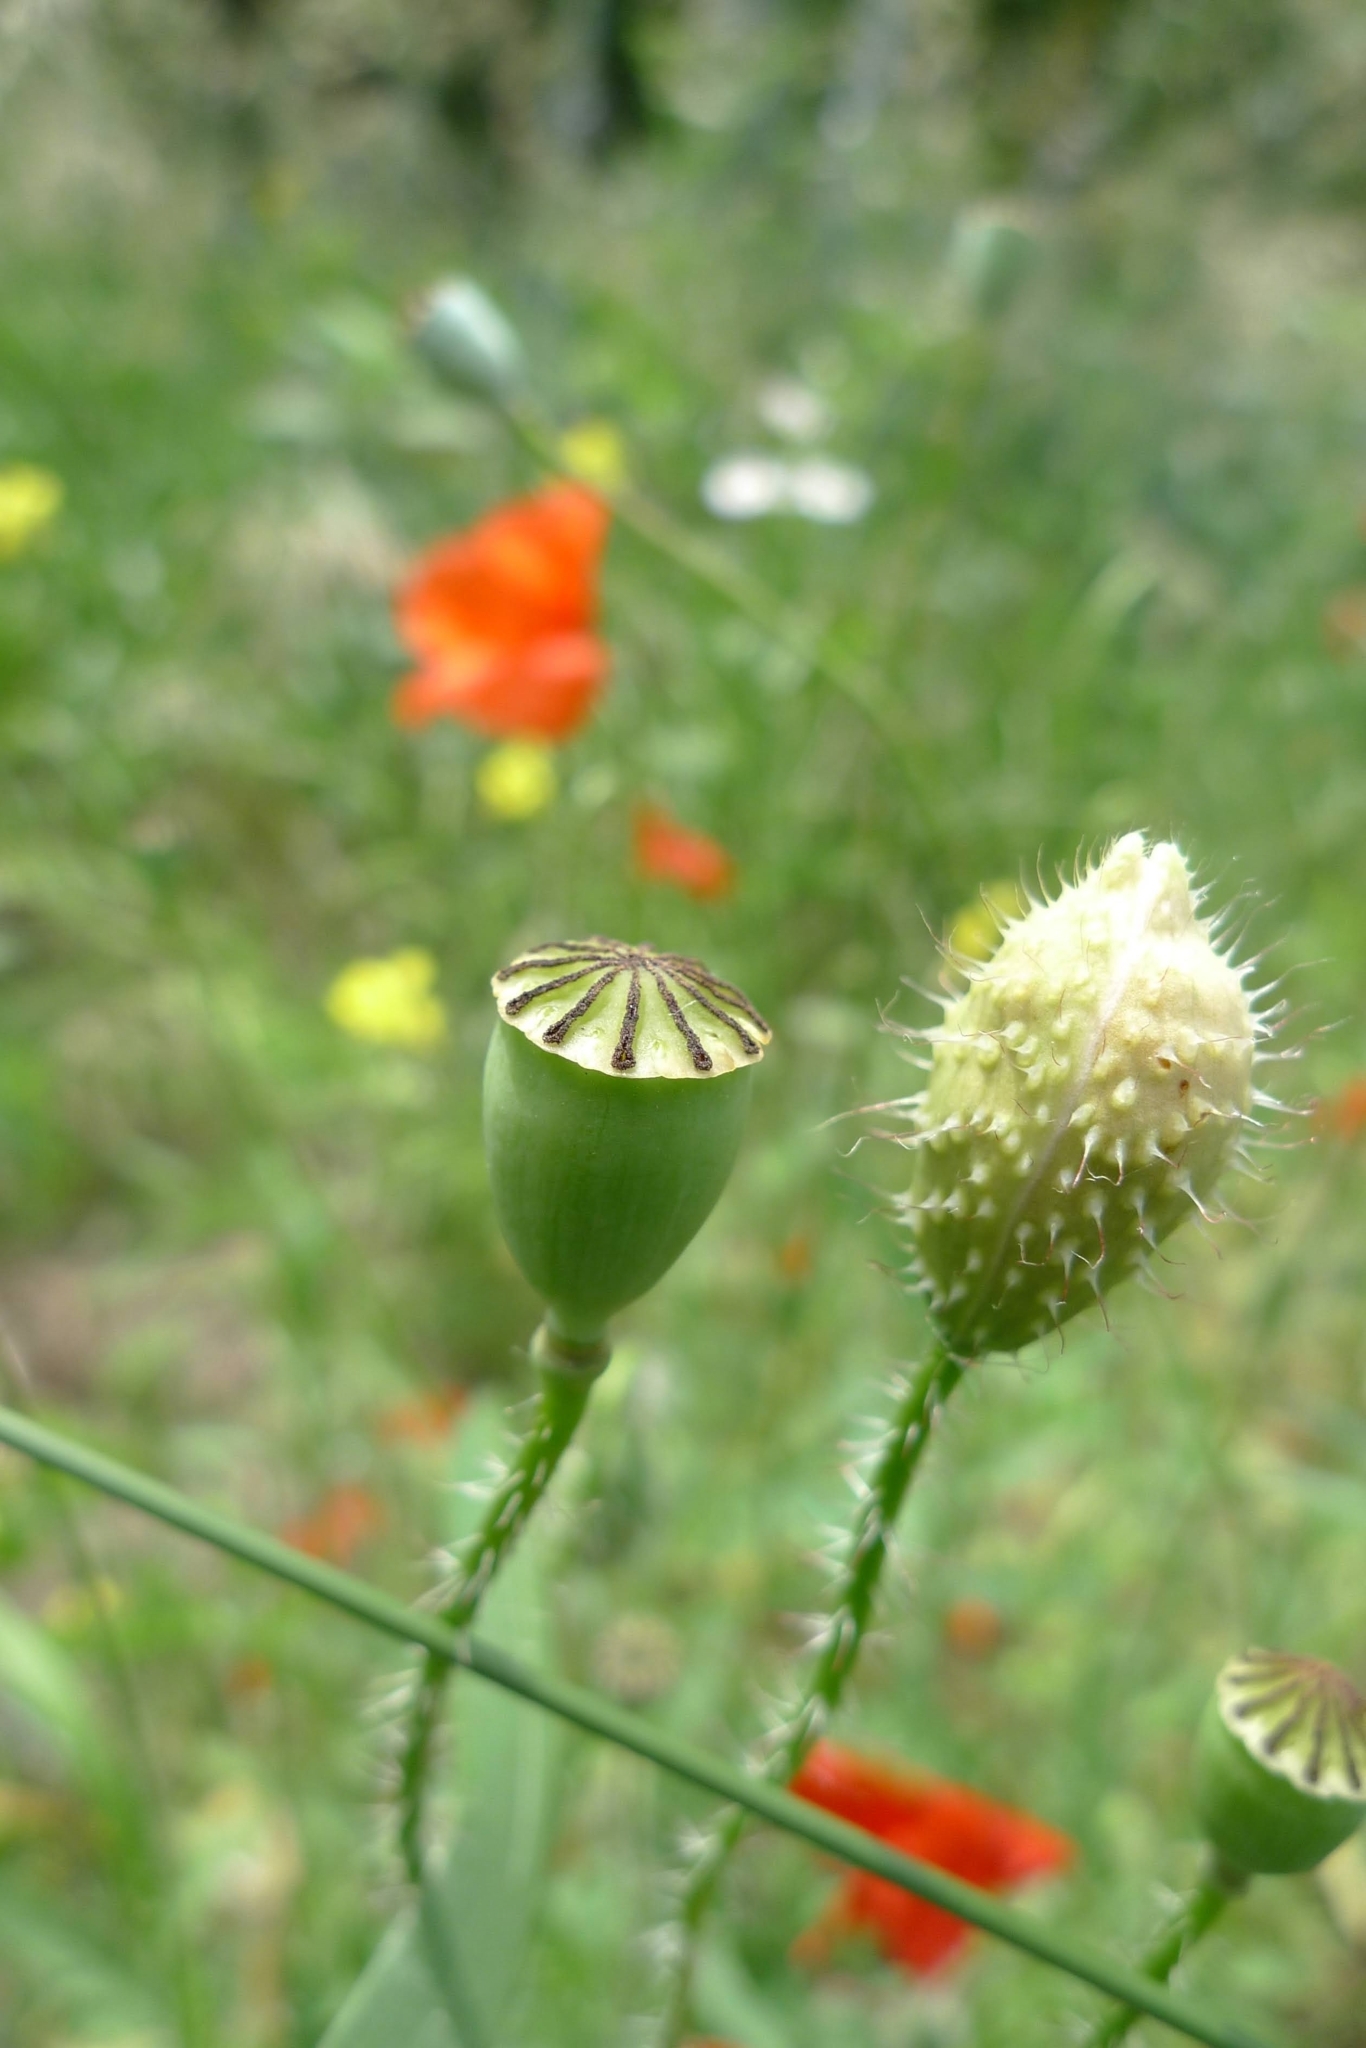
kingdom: Plantae
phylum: Tracheophyta
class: Magnoliopsida
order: Ranunculales
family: Papaveraceae
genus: Papaver
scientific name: Papaver rhoeas
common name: Corn poppy
